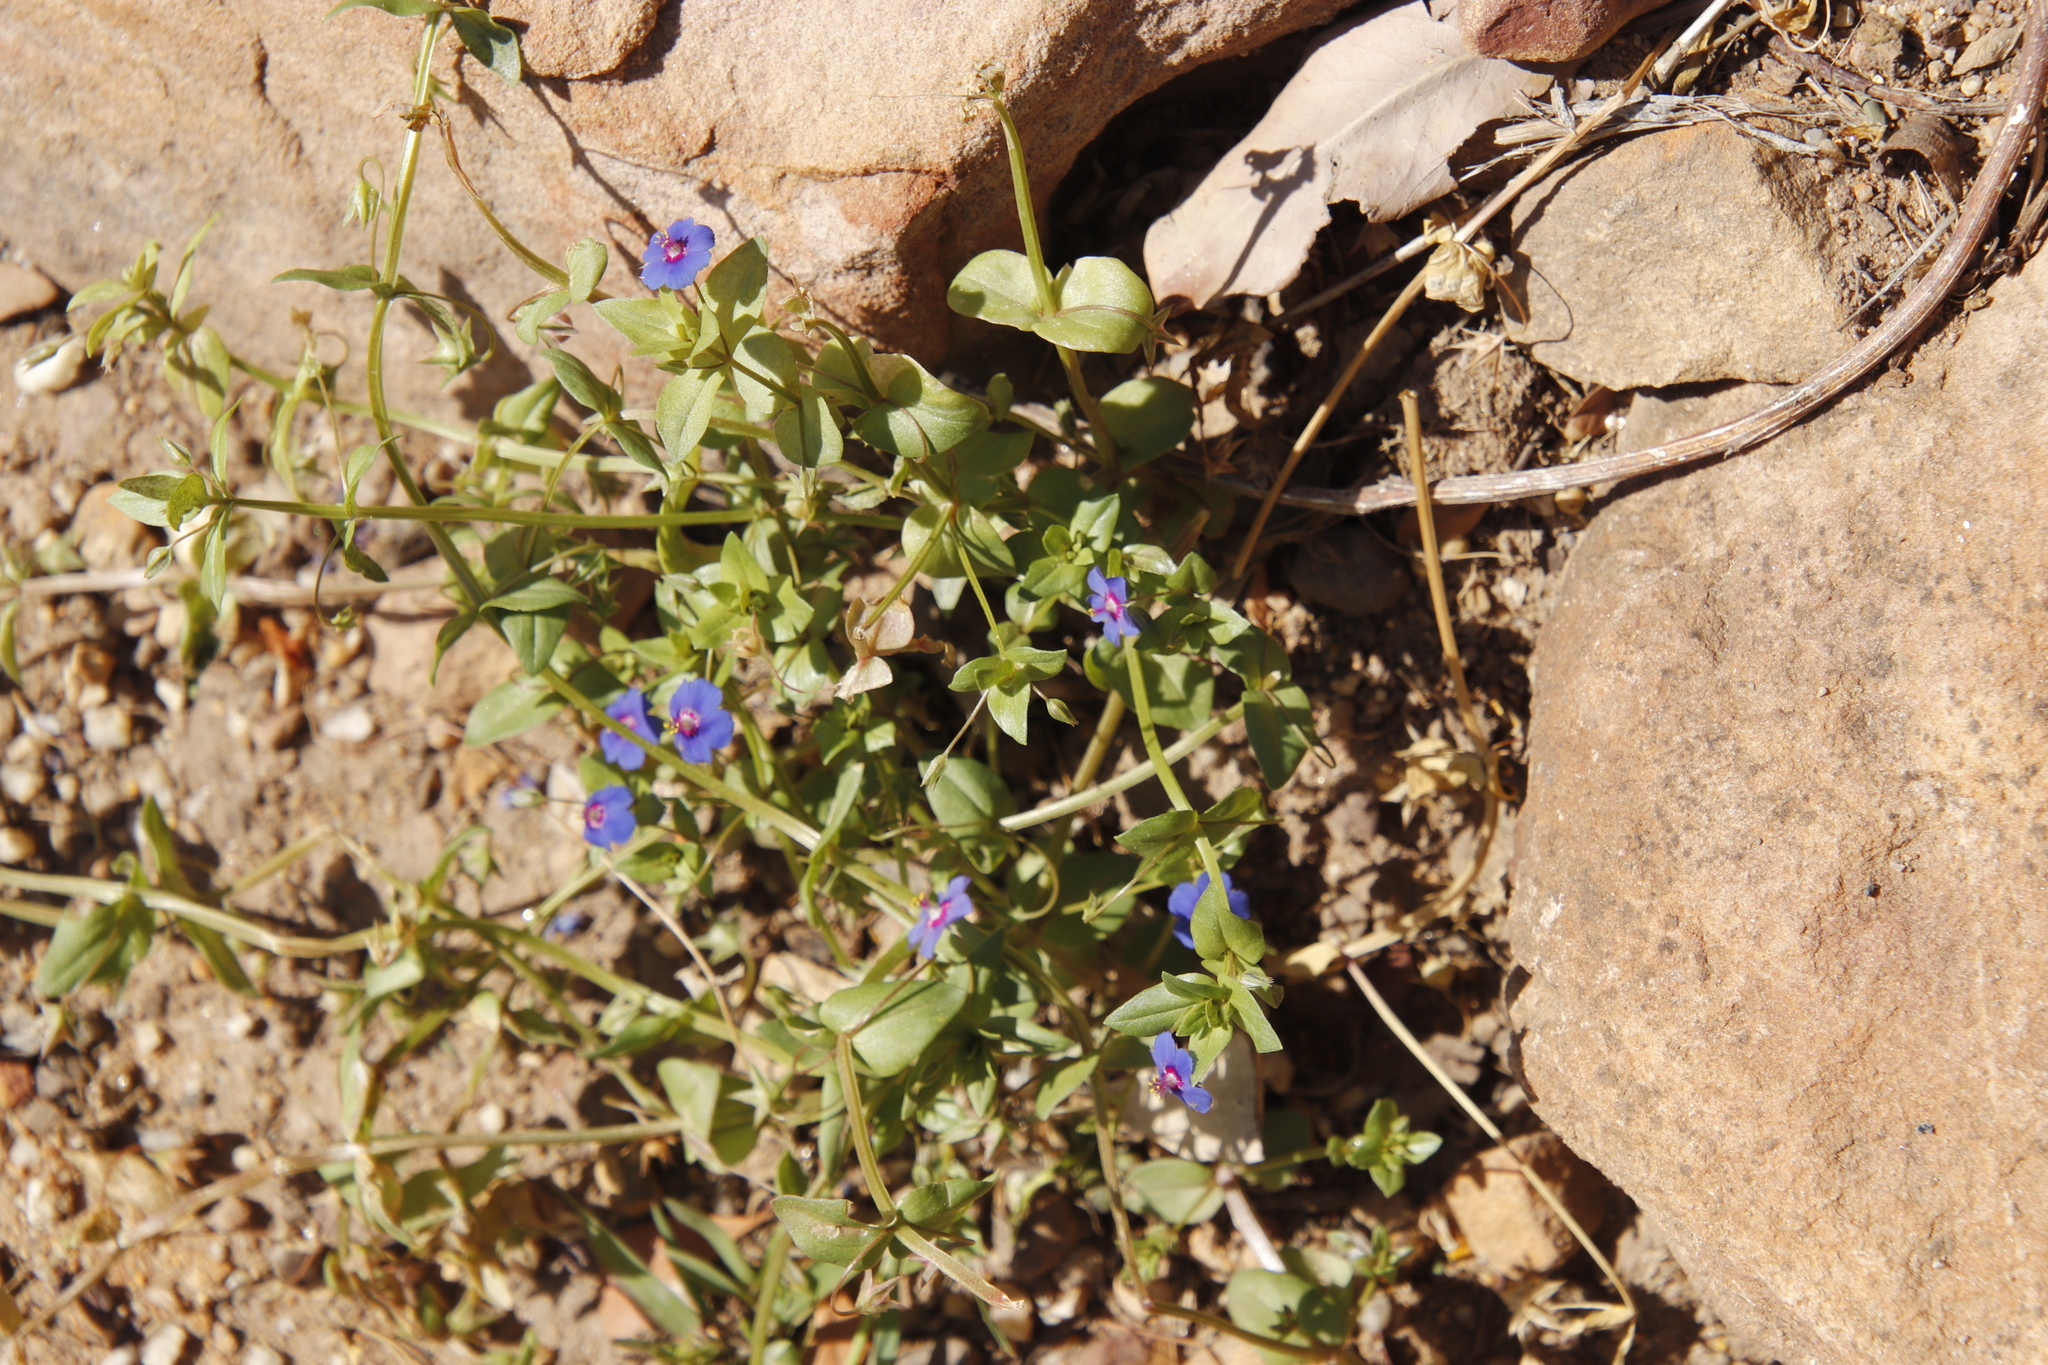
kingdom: Plantae
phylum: Tracheophyta
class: Magnoliopsida
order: Ericales
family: Primulaceae
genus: Lysimachia
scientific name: Lysimachia loeflingii
